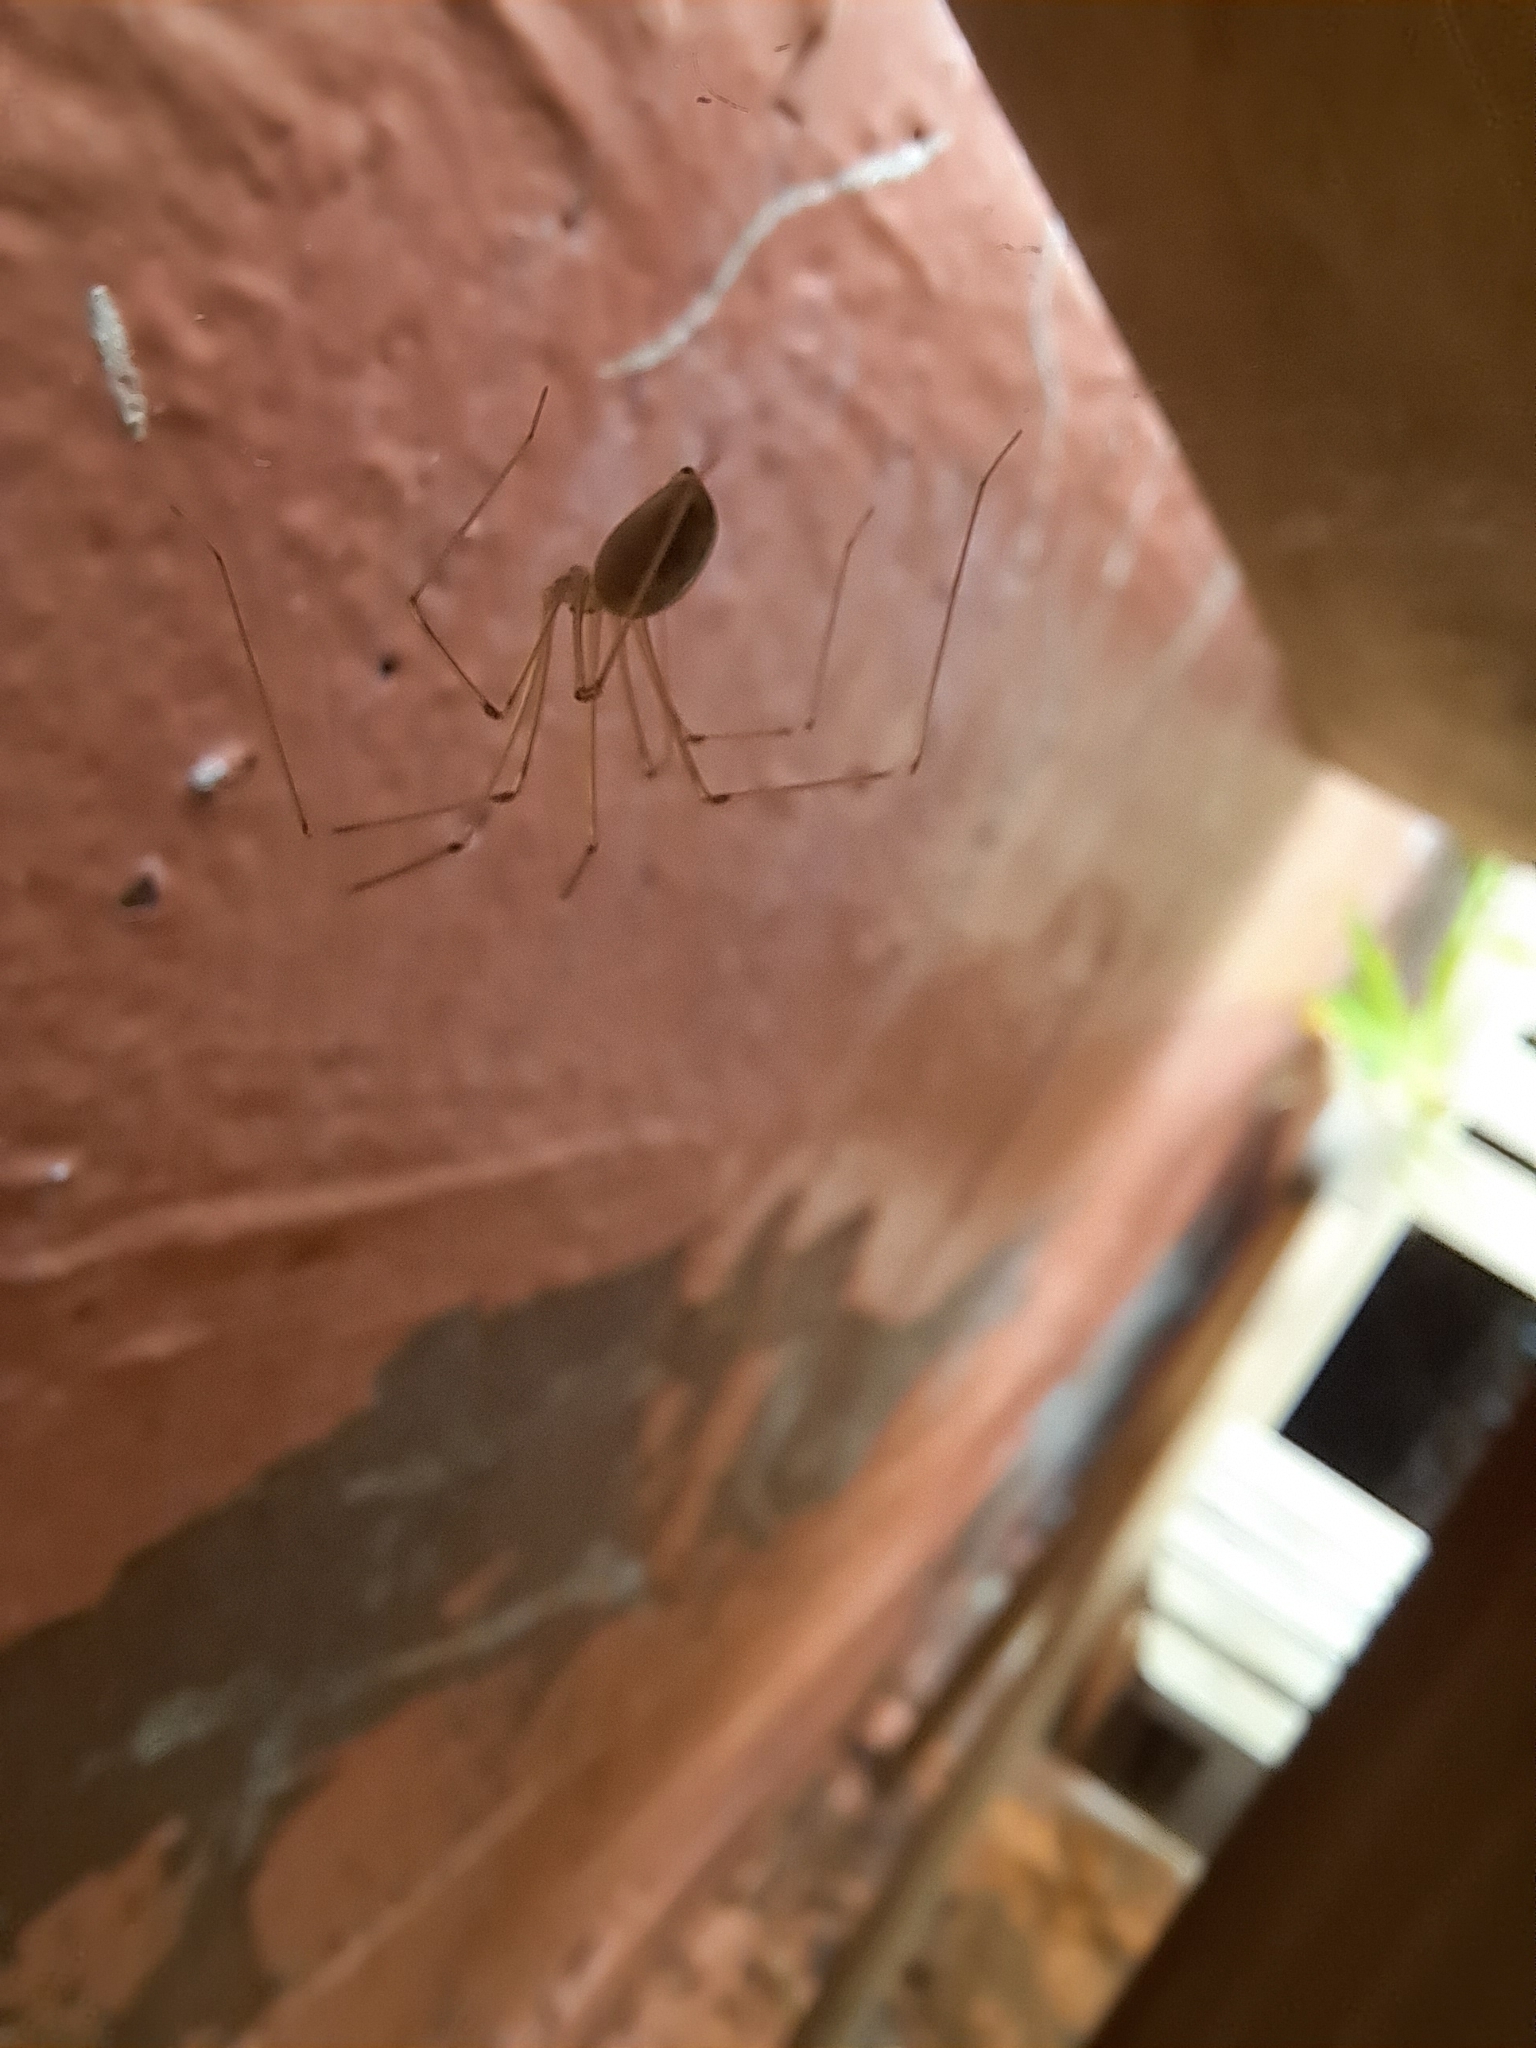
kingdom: Animalia
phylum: Arthropoda
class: Arachnida
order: Araneae
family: Pholcidae
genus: Pholcus
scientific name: Pholcus phalangioides
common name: Longbodied cellar spider
